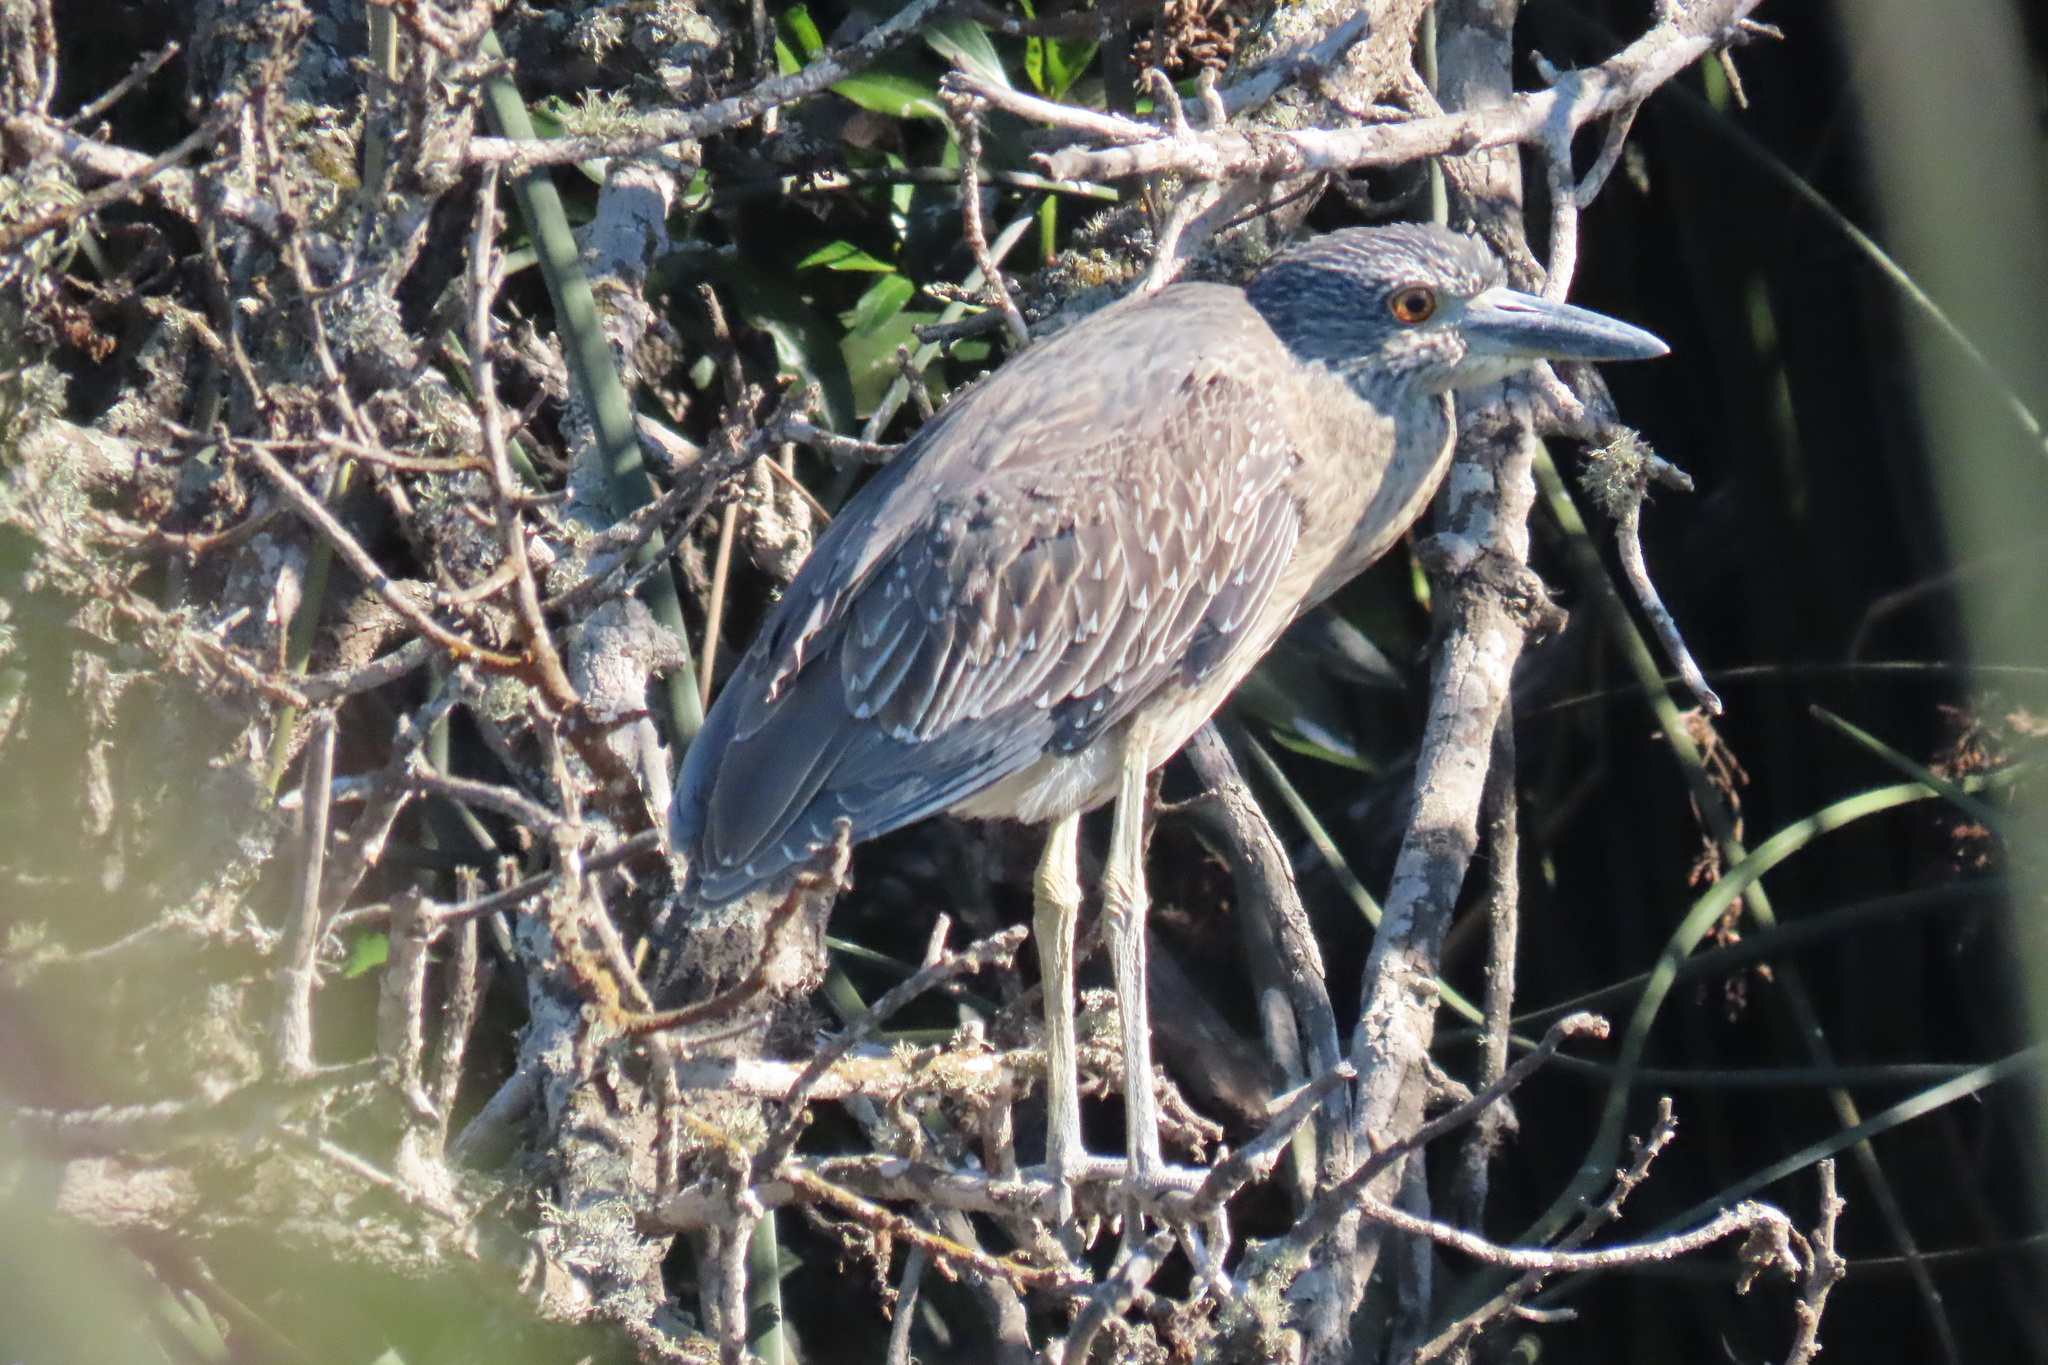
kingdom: Animalia
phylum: Chordata
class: Aves
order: Pelecaniformes
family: Ardeidae
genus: Nyctanassa
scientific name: Nyctanassa violacea
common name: Yellow-crowned night heron
